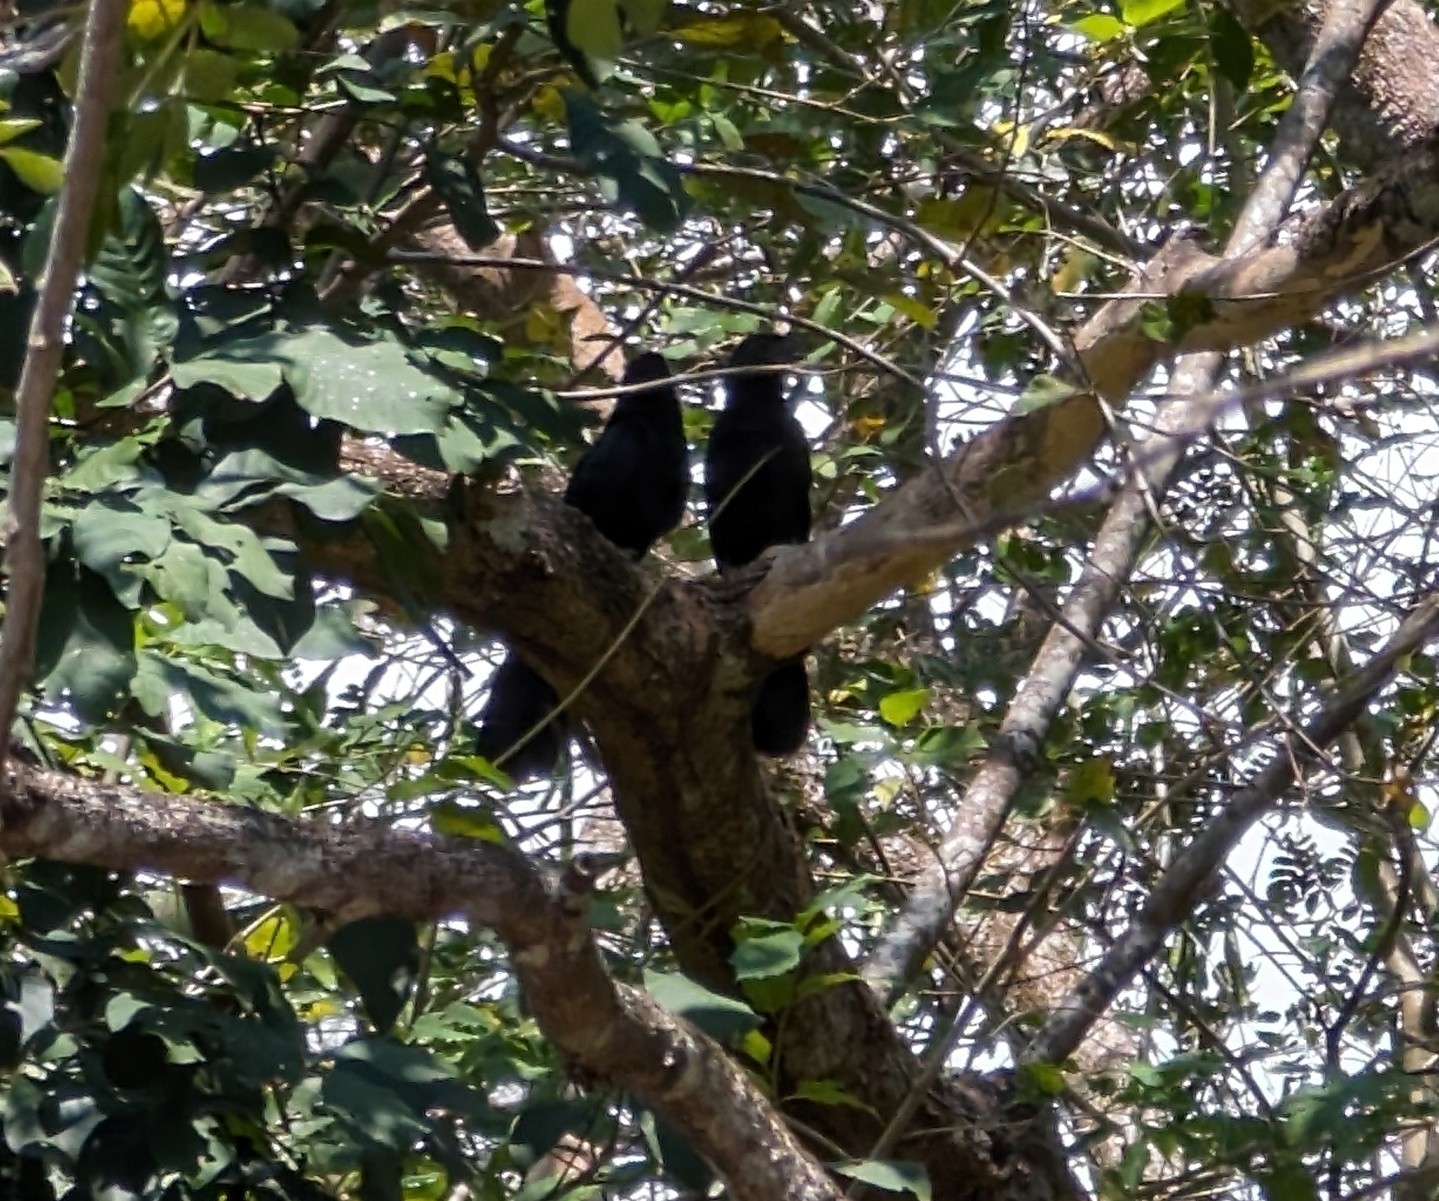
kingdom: Animalia
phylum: Chordata
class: Aves
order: Cuculiformes
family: Cuculidae
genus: Crotophaga
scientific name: Crotophaga sulcirostris
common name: Groove-billed ani
